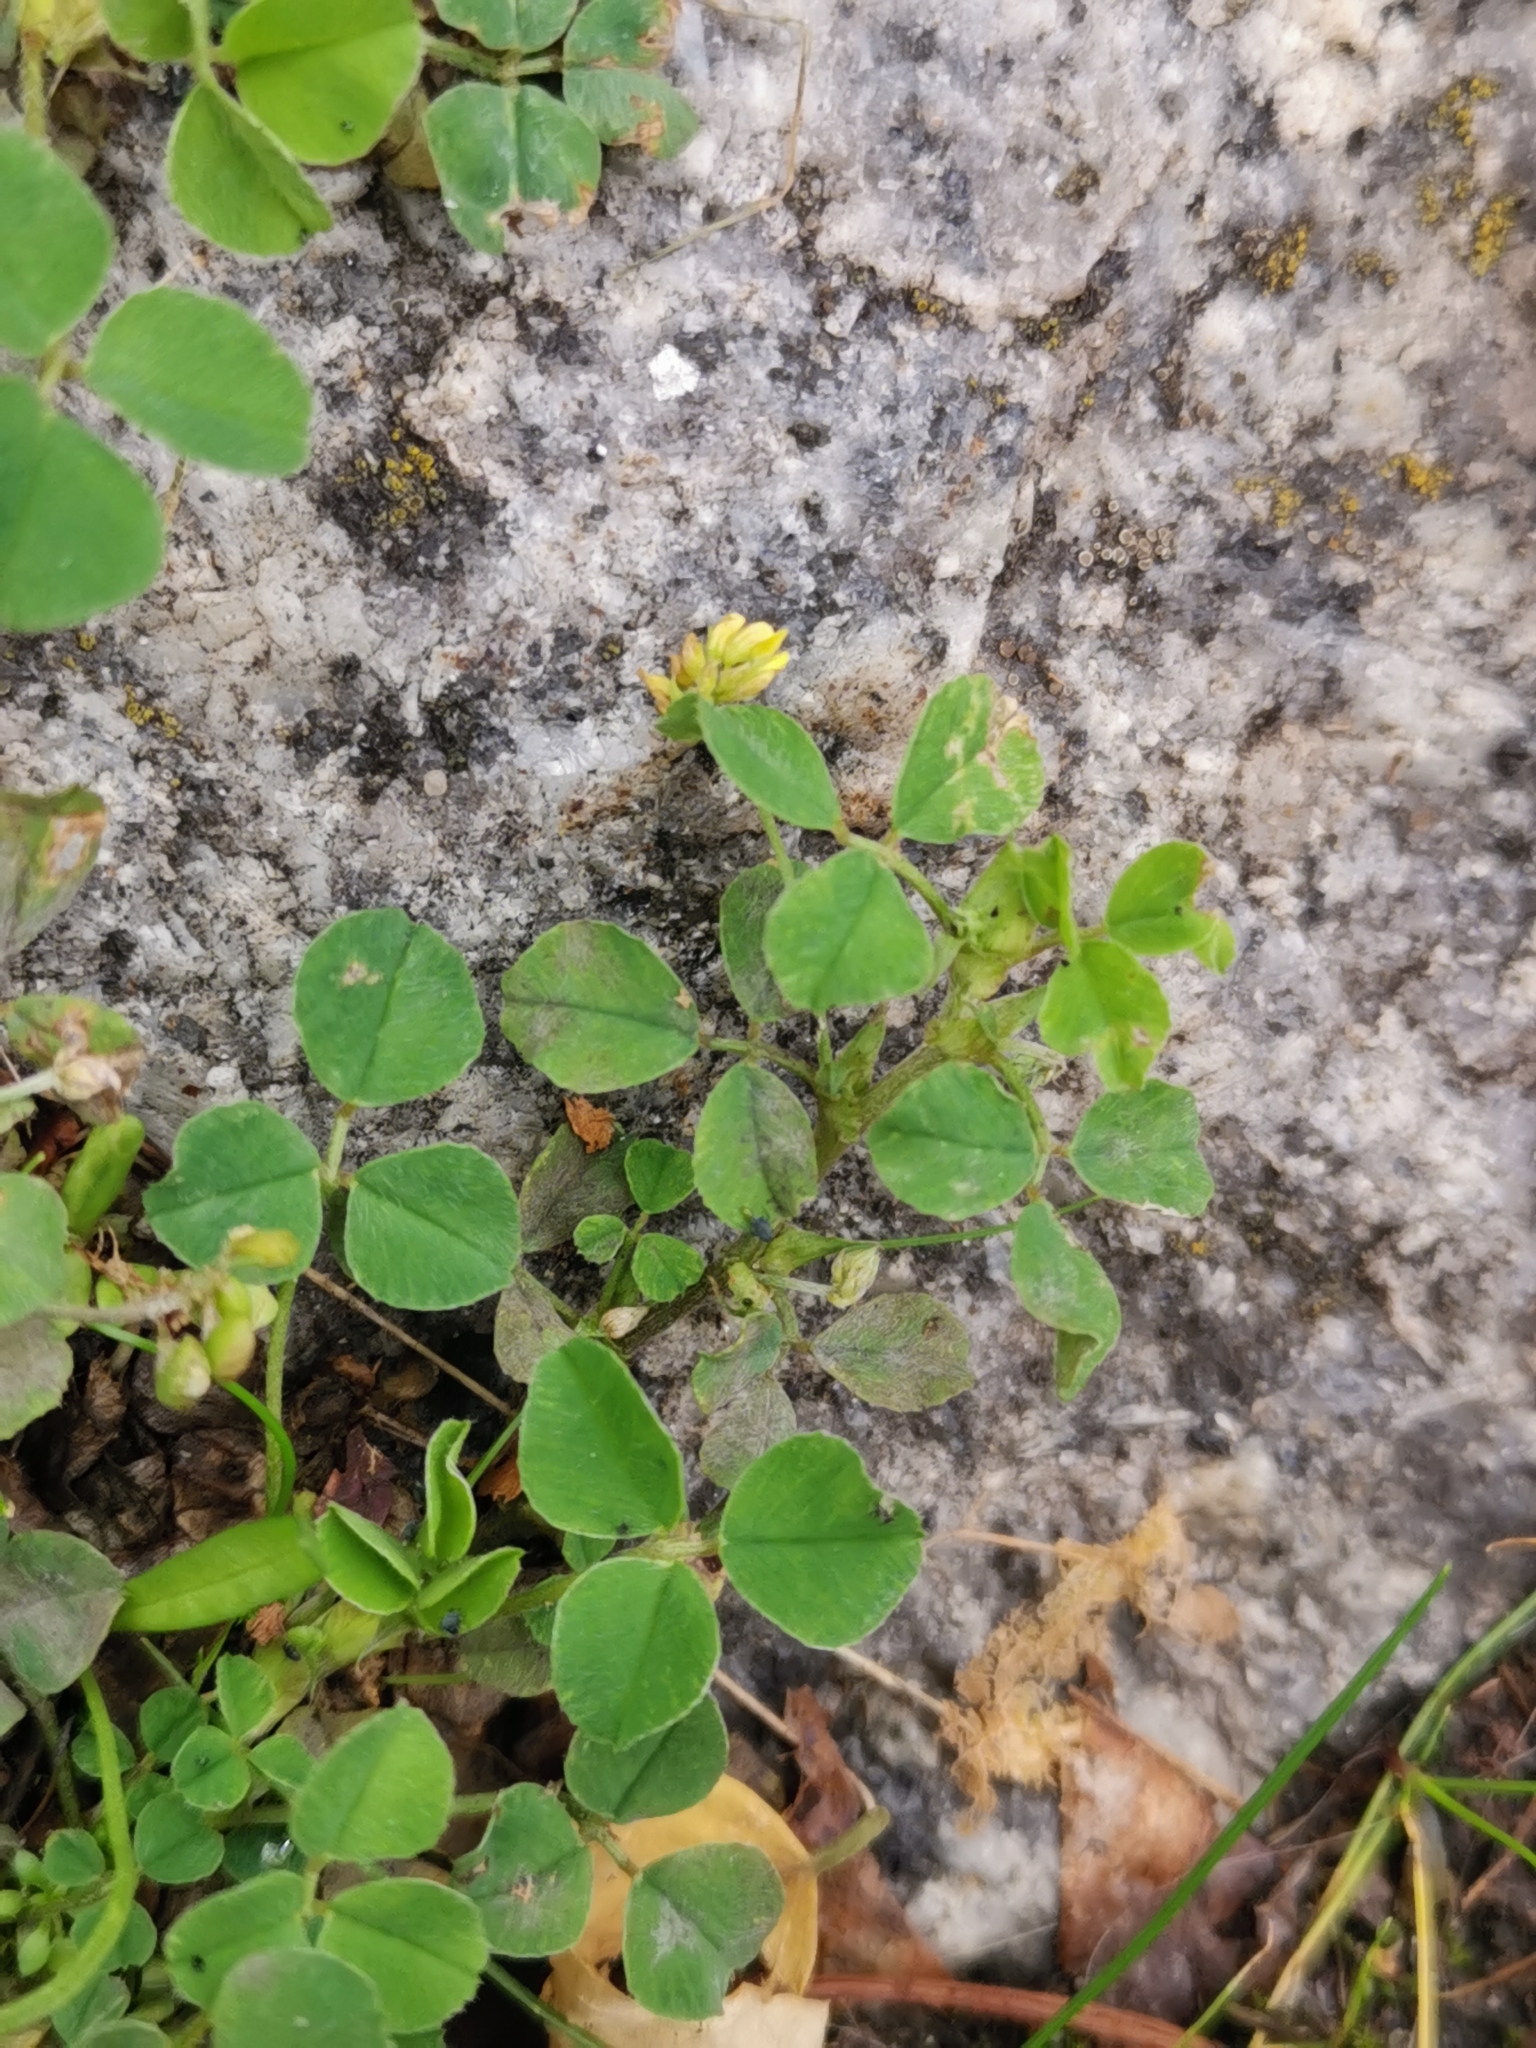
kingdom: Plantae
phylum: Tracheophyta
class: Magnoliopsida
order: Fabales
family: Fabaceae
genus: Medicago
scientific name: Medicago lupulina
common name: Black medick
